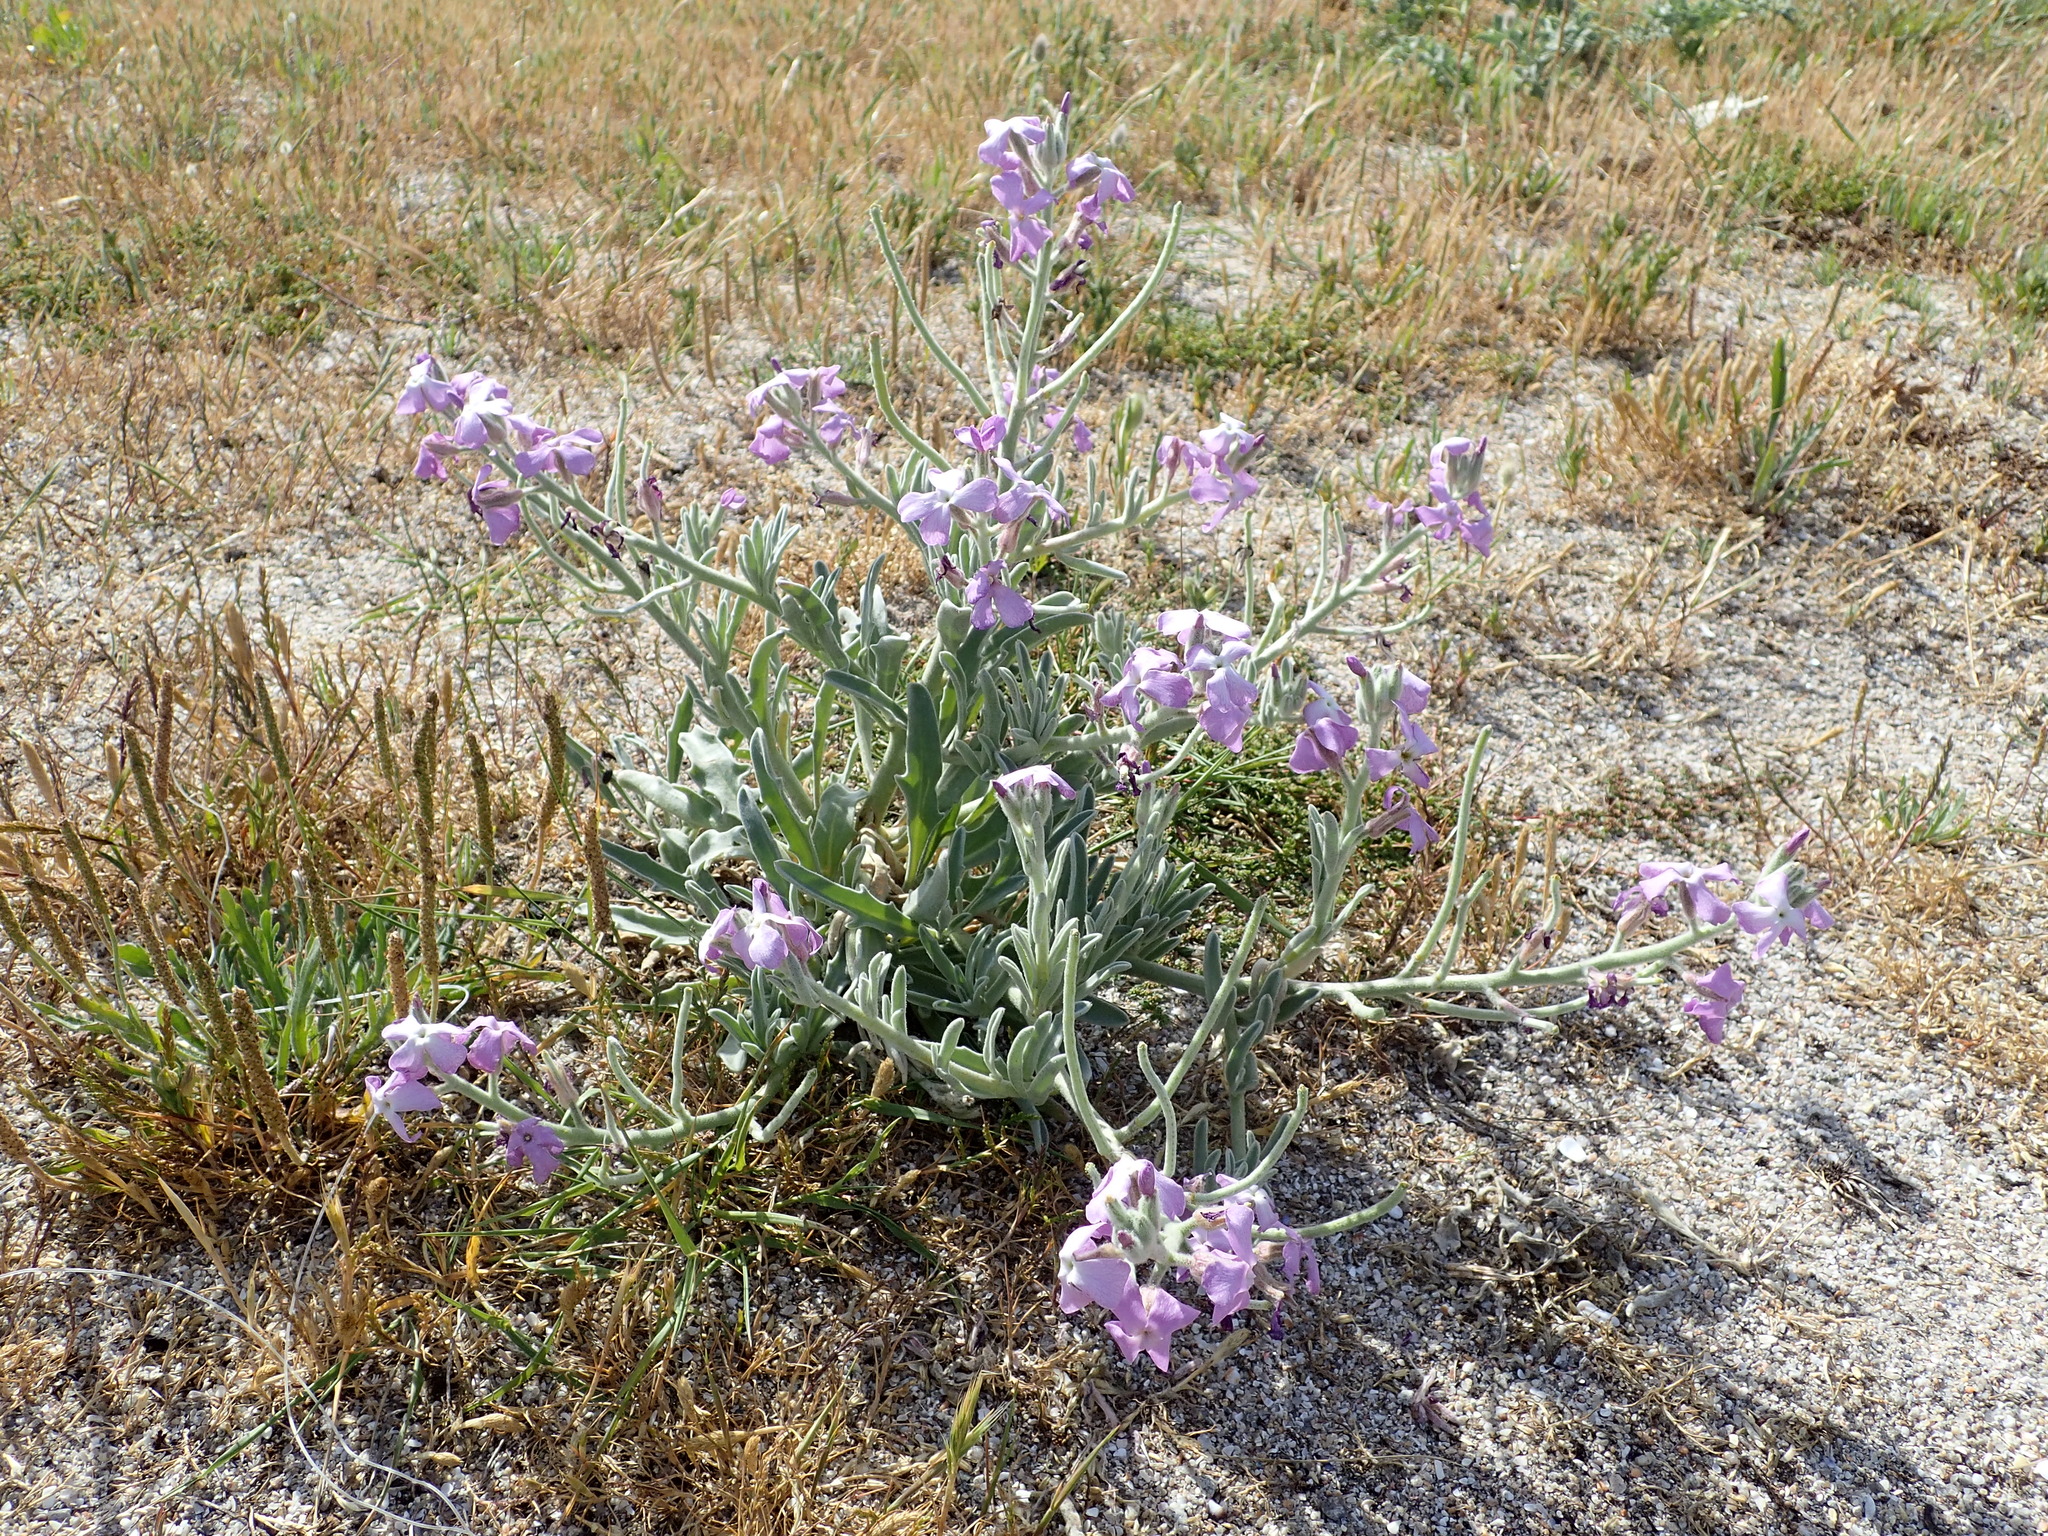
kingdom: Plantae
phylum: Tracheophyta
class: Magnoliopsida
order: Brassicales
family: Brassicaceae
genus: Matthiola
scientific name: Matthiola sinuata
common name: Sea stock
